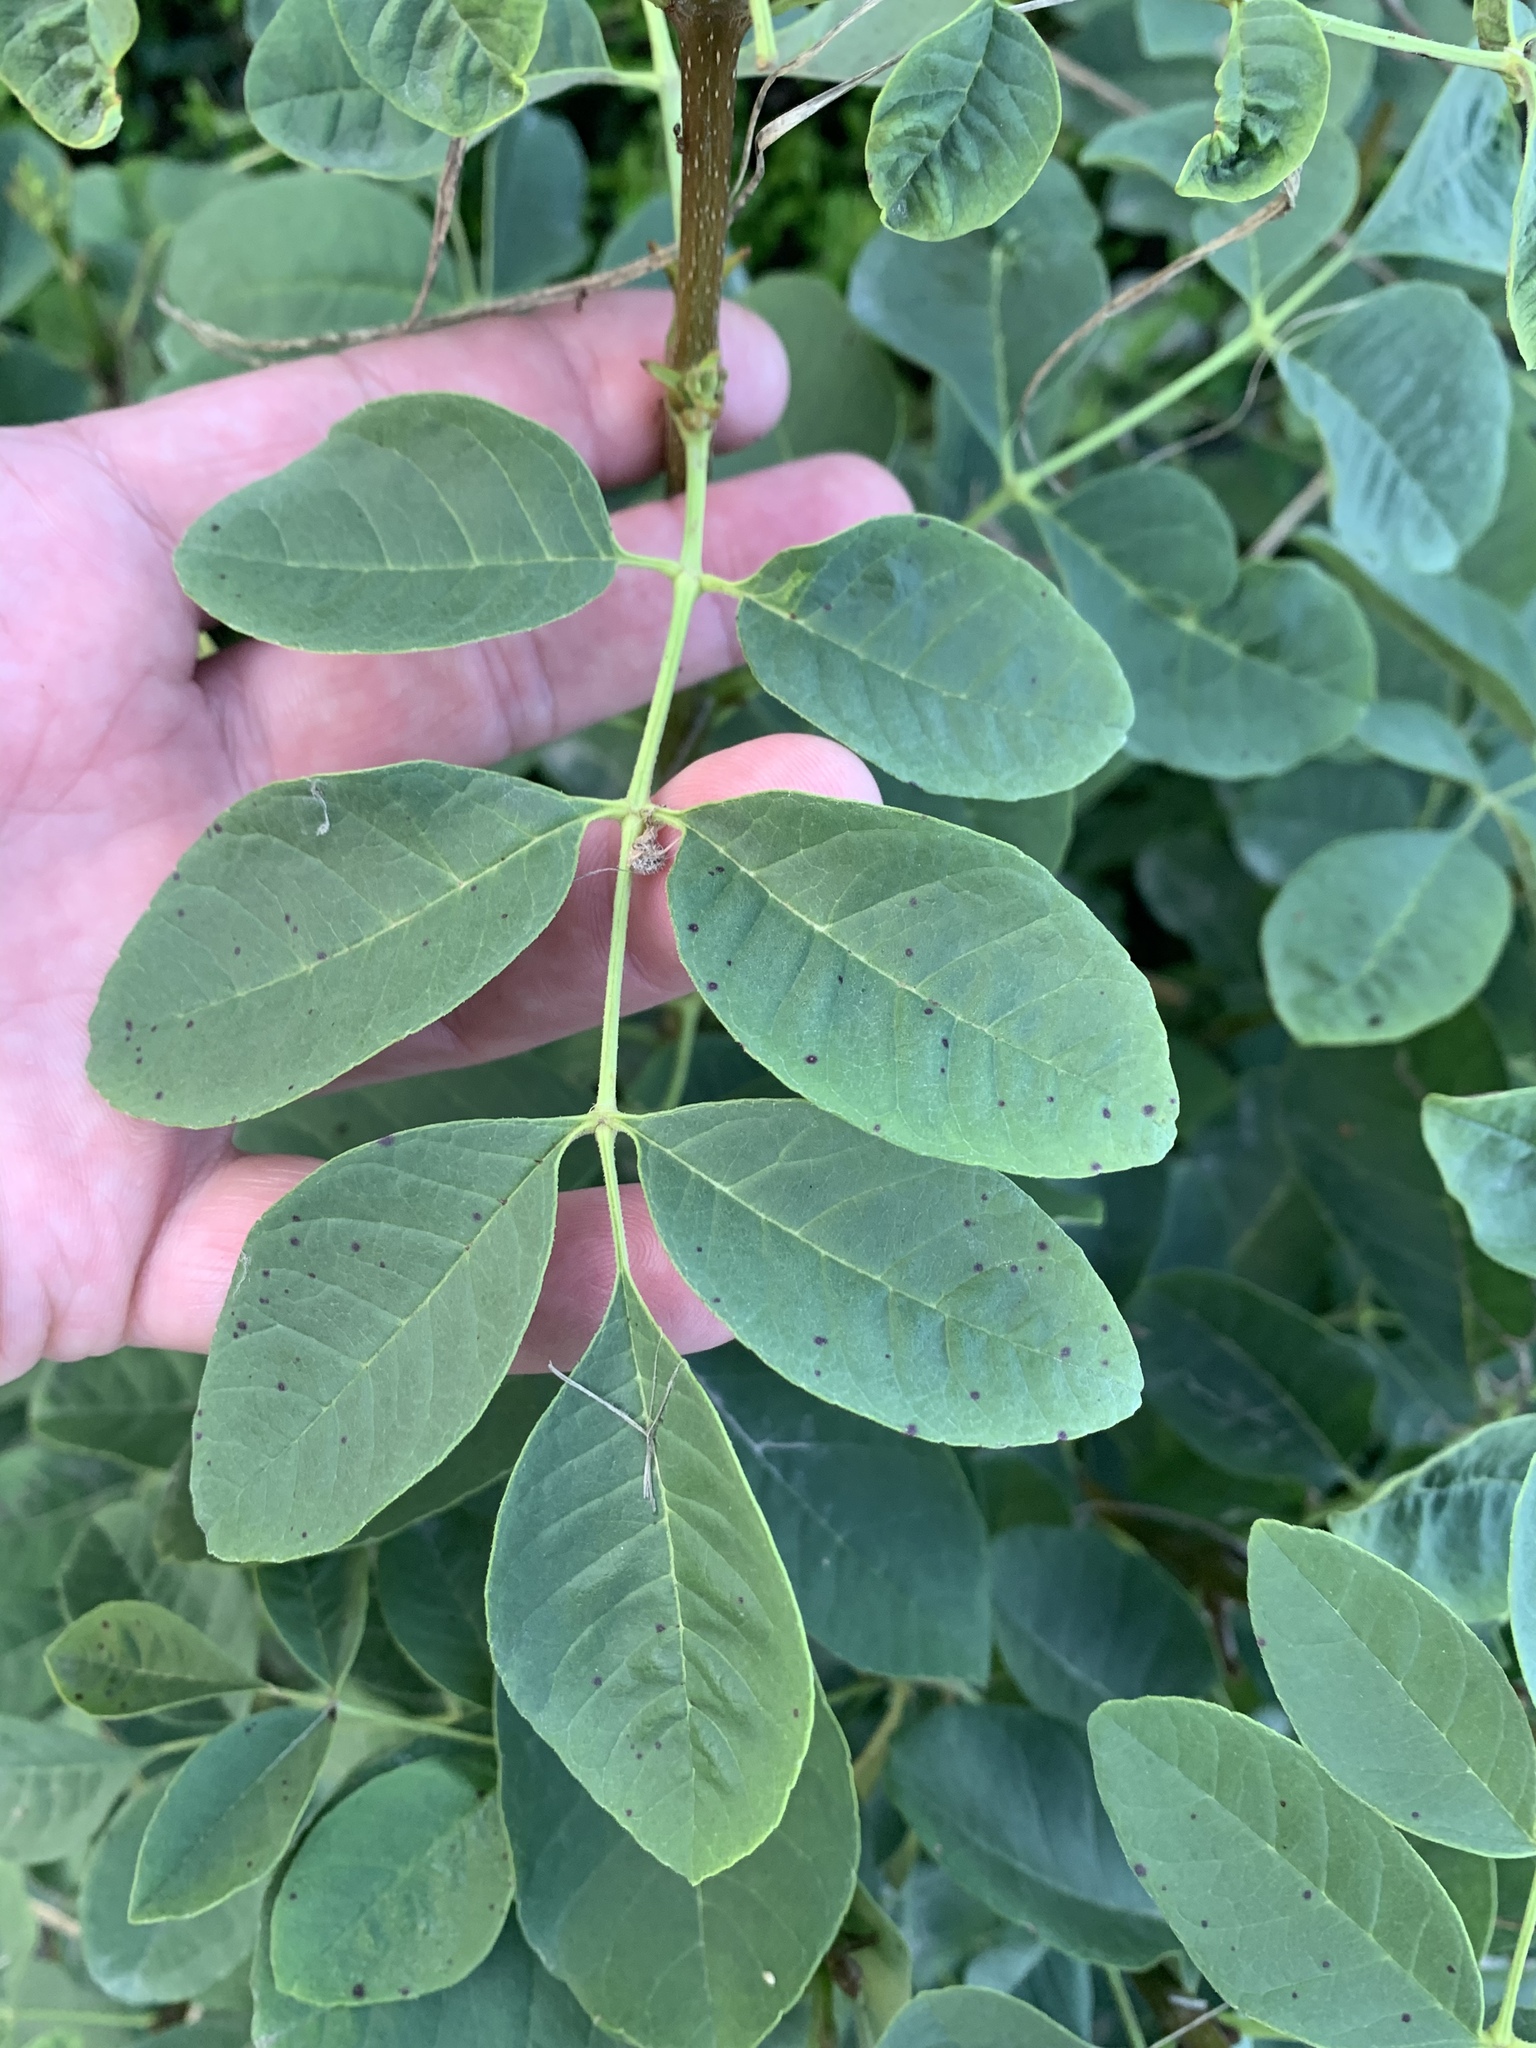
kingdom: Plantae
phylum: Tracheophyta
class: Magnoliopsida
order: Lamiales
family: Oleaceae
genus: Fraxinus
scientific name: Fraxinus pennsylvanica
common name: Green ash
